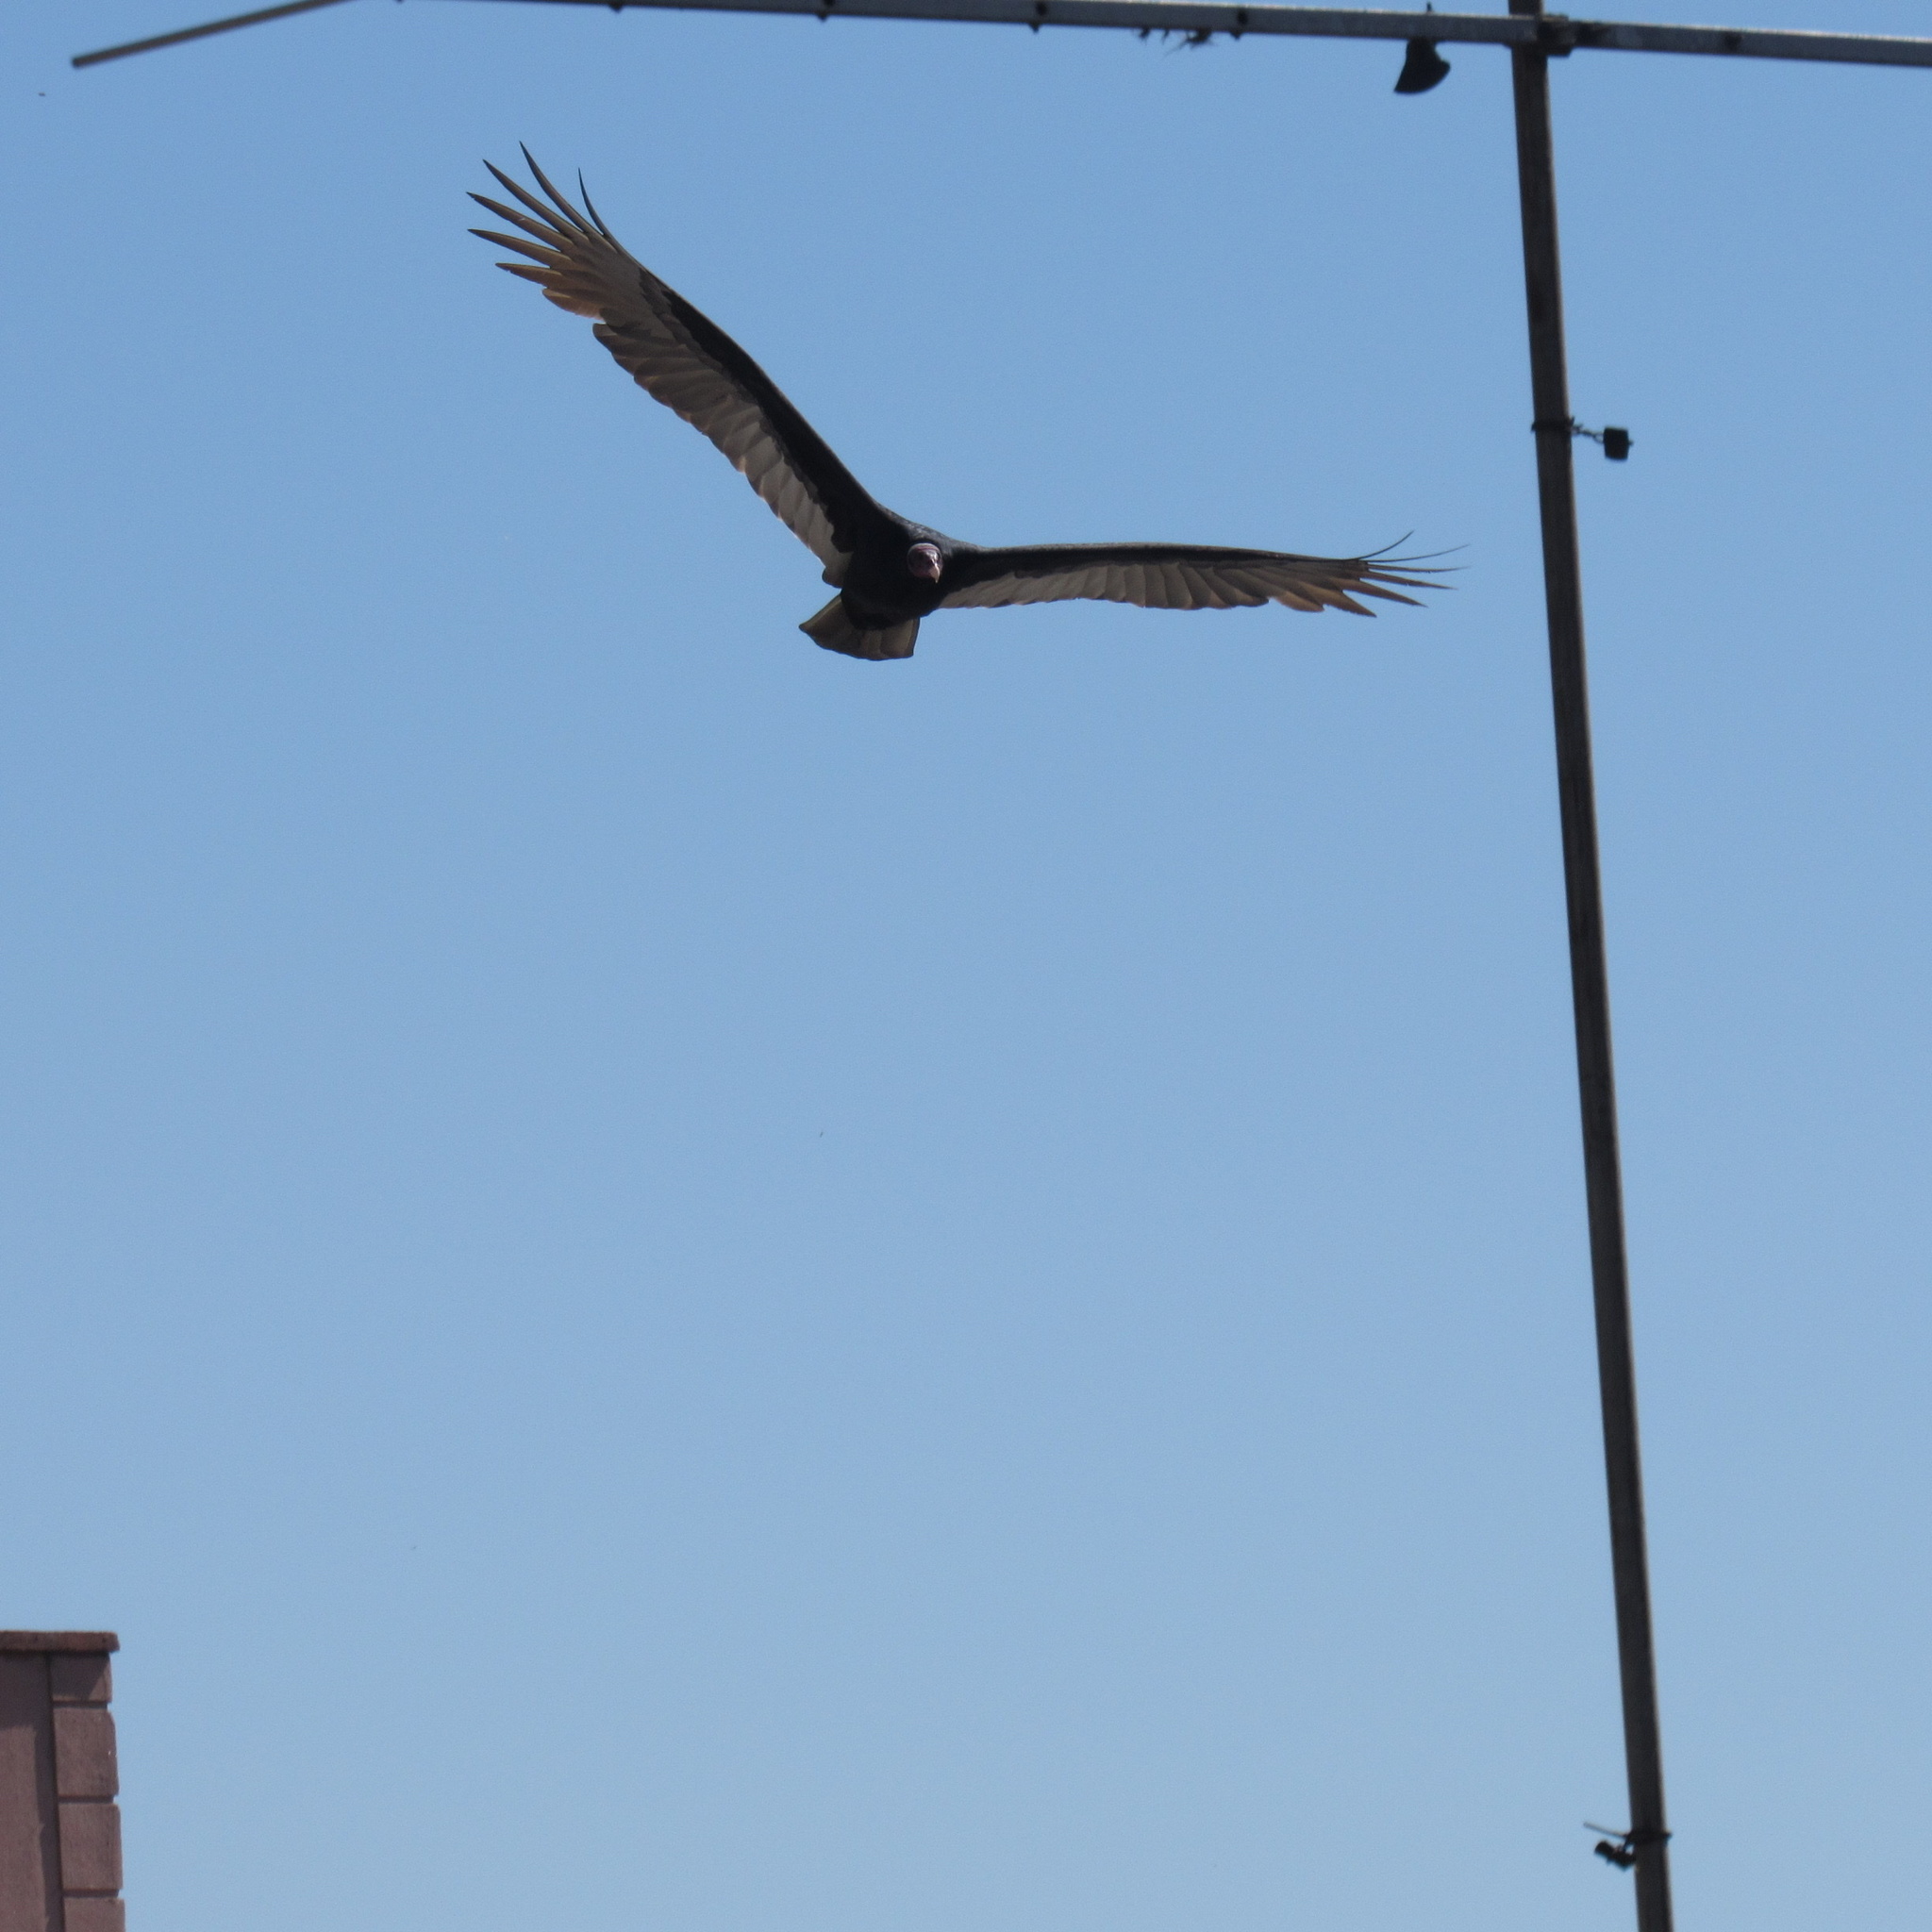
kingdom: Animalia
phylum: Chordata
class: Aves
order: Accipitriformes
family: Cathartidae
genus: Cathartes
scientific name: Cathartes aura
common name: Turkey vulture
